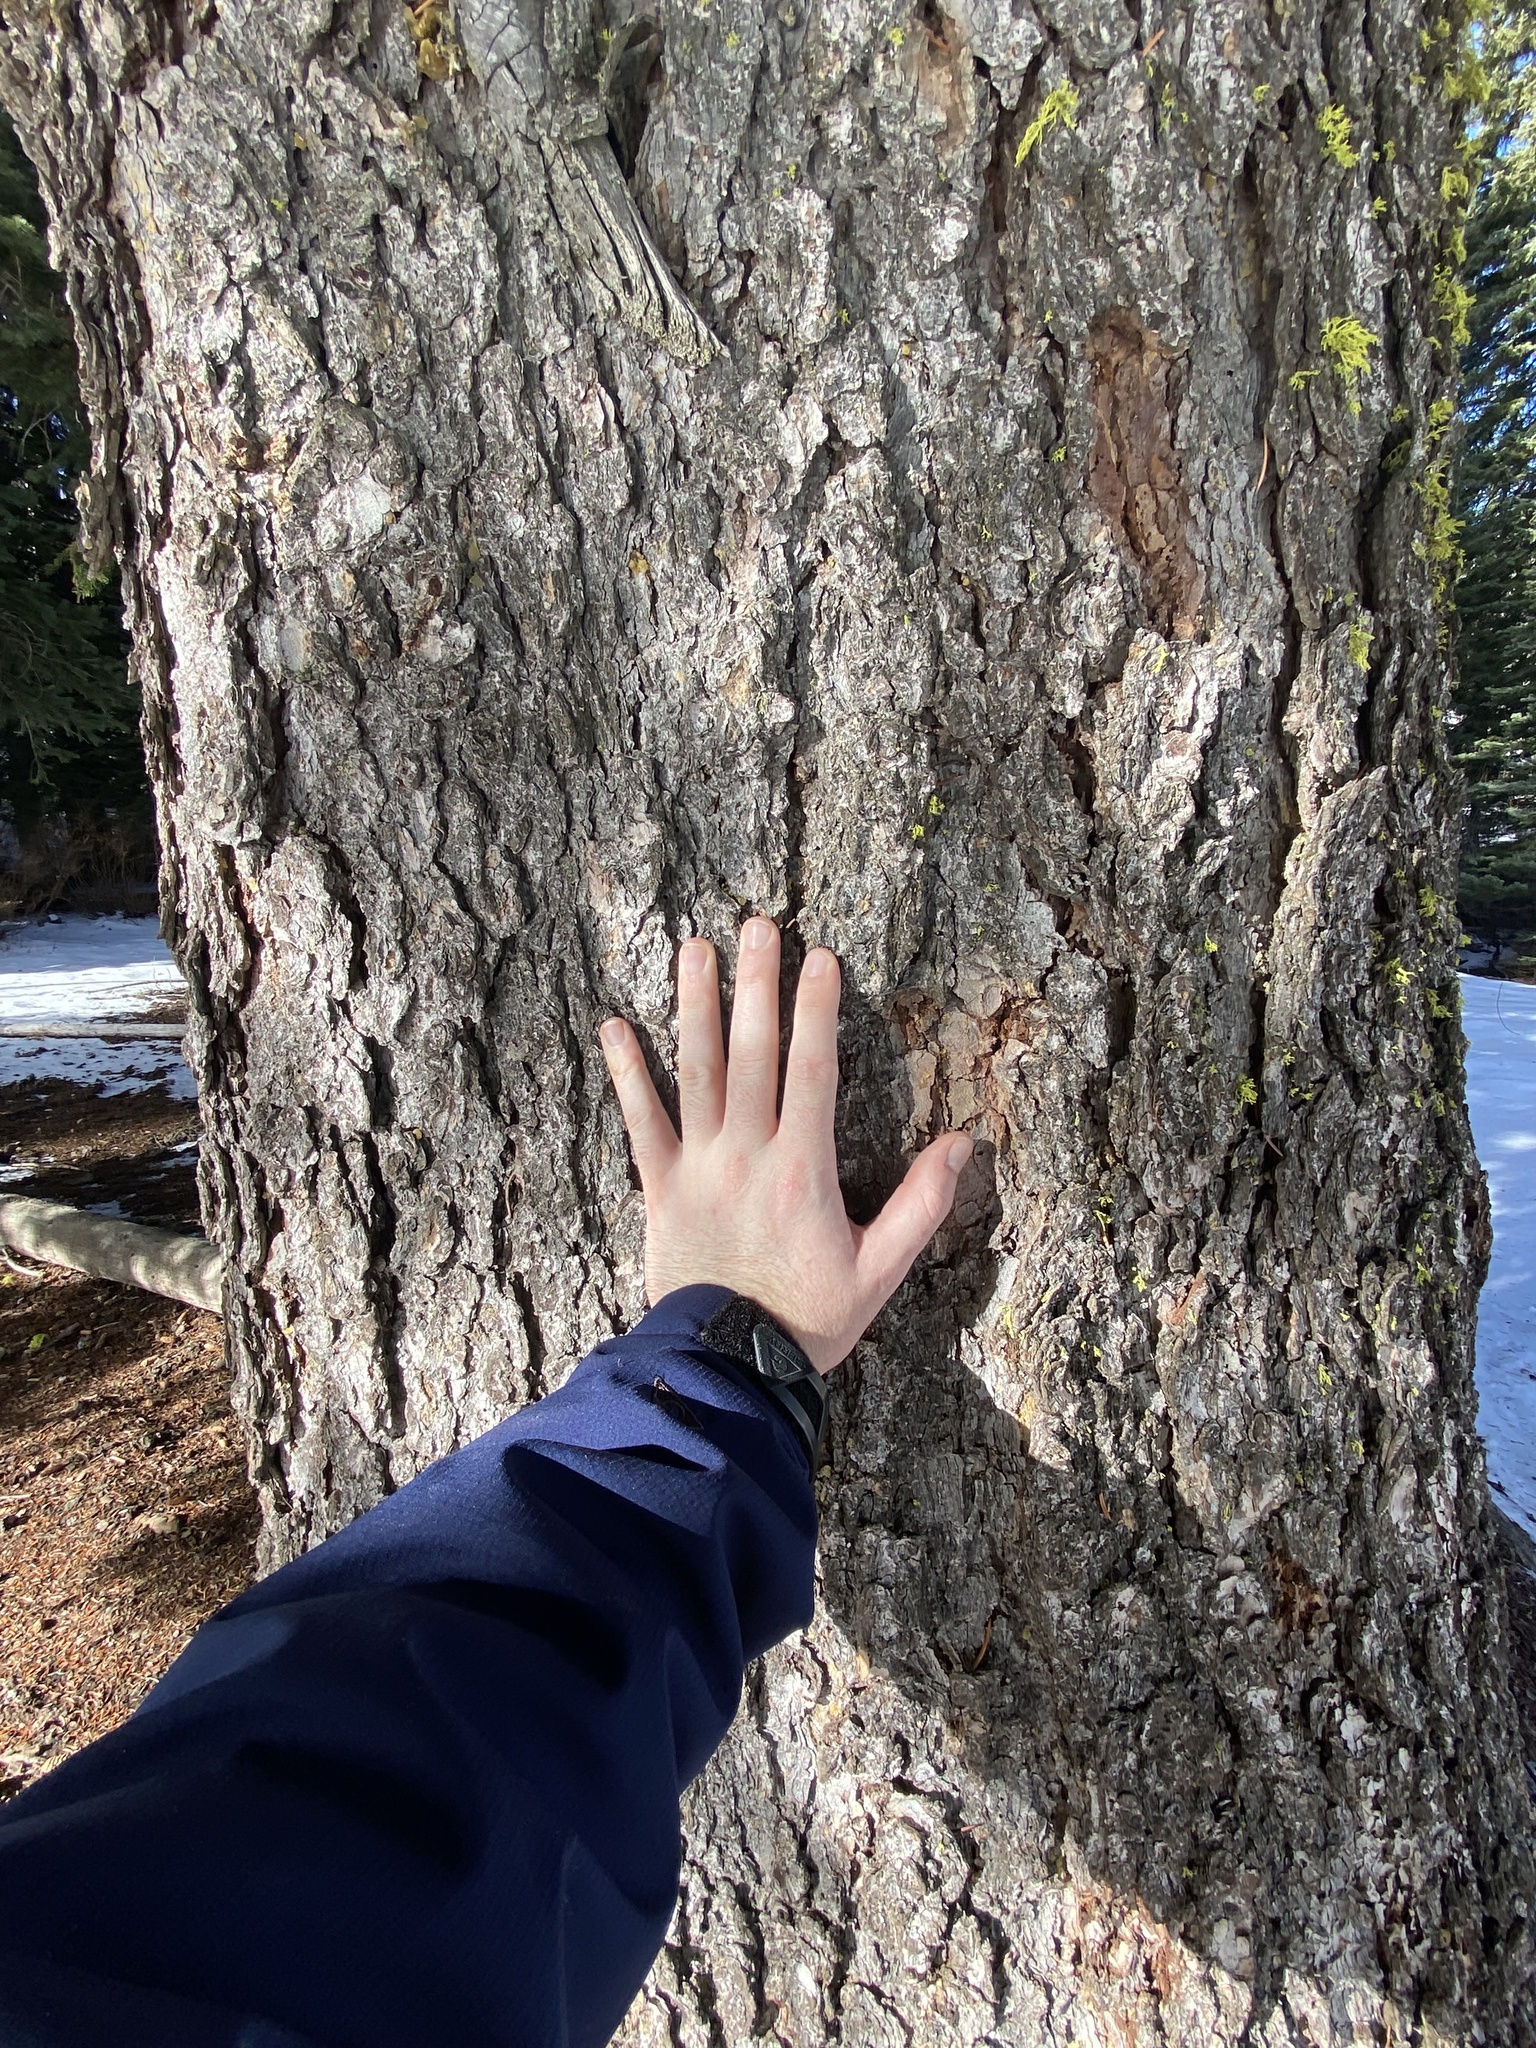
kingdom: Plantae
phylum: Tracheophyta
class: Pinopsida
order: Pinales
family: Pinaceae
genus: Picea
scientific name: Picea engelmannii
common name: Engelmann spruce
